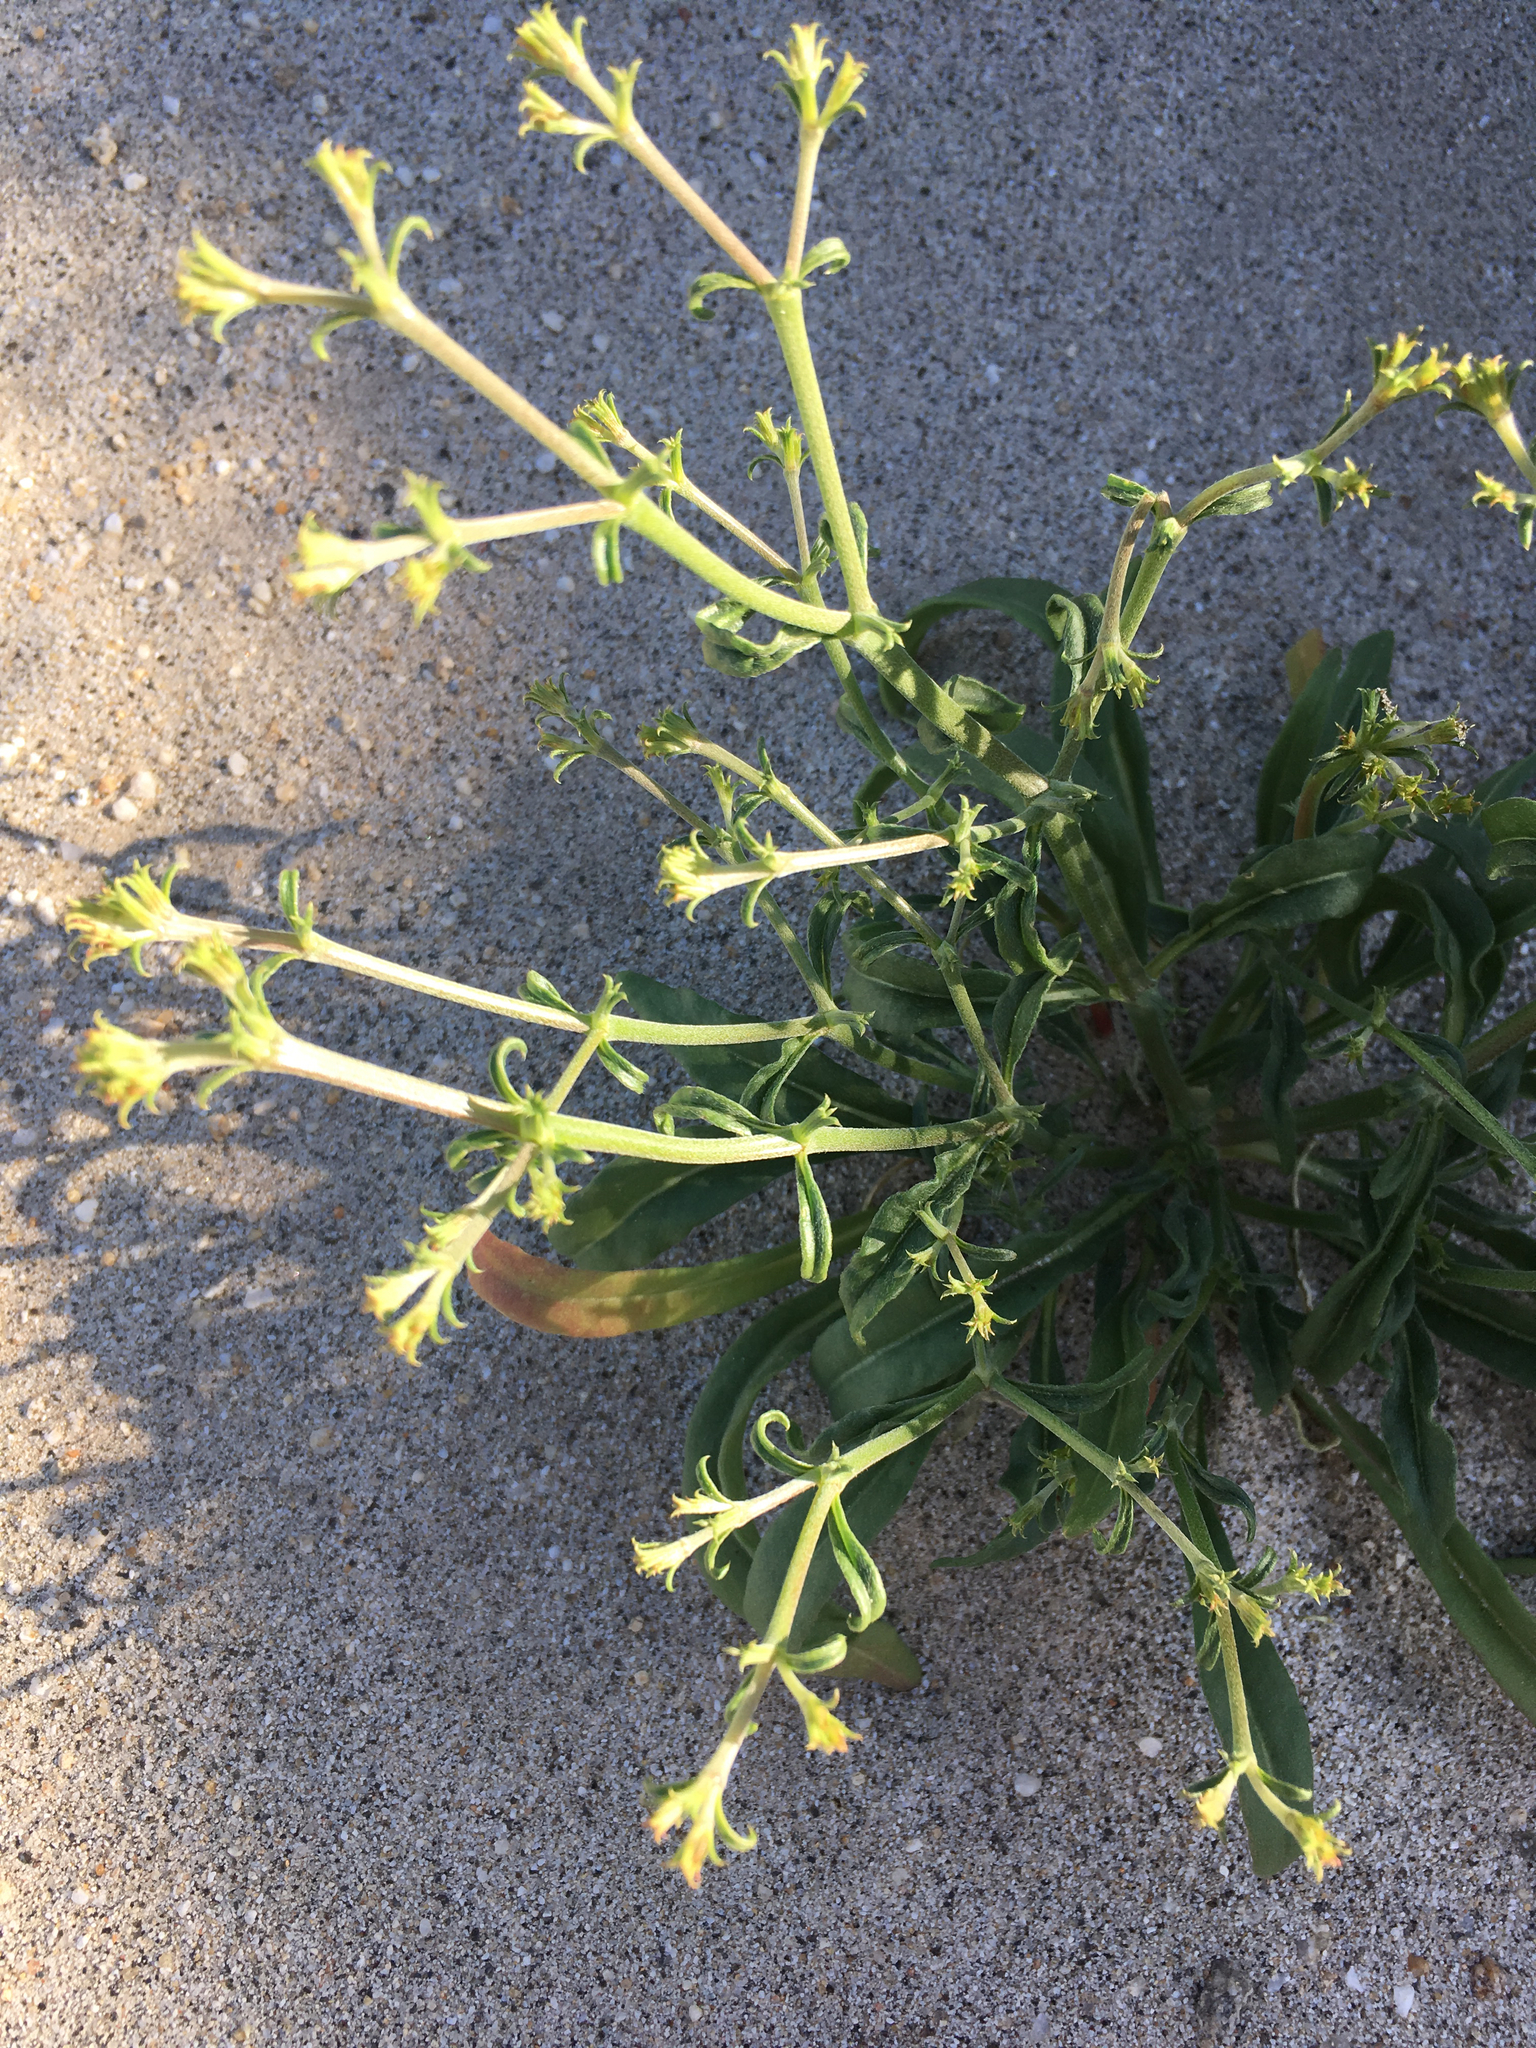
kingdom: Plantae
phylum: Tracheophyta
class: Magnoliopsida
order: Caryophyllales
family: Polygonaceae
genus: Chorizanthe
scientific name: Chorizanthe brevicornu
